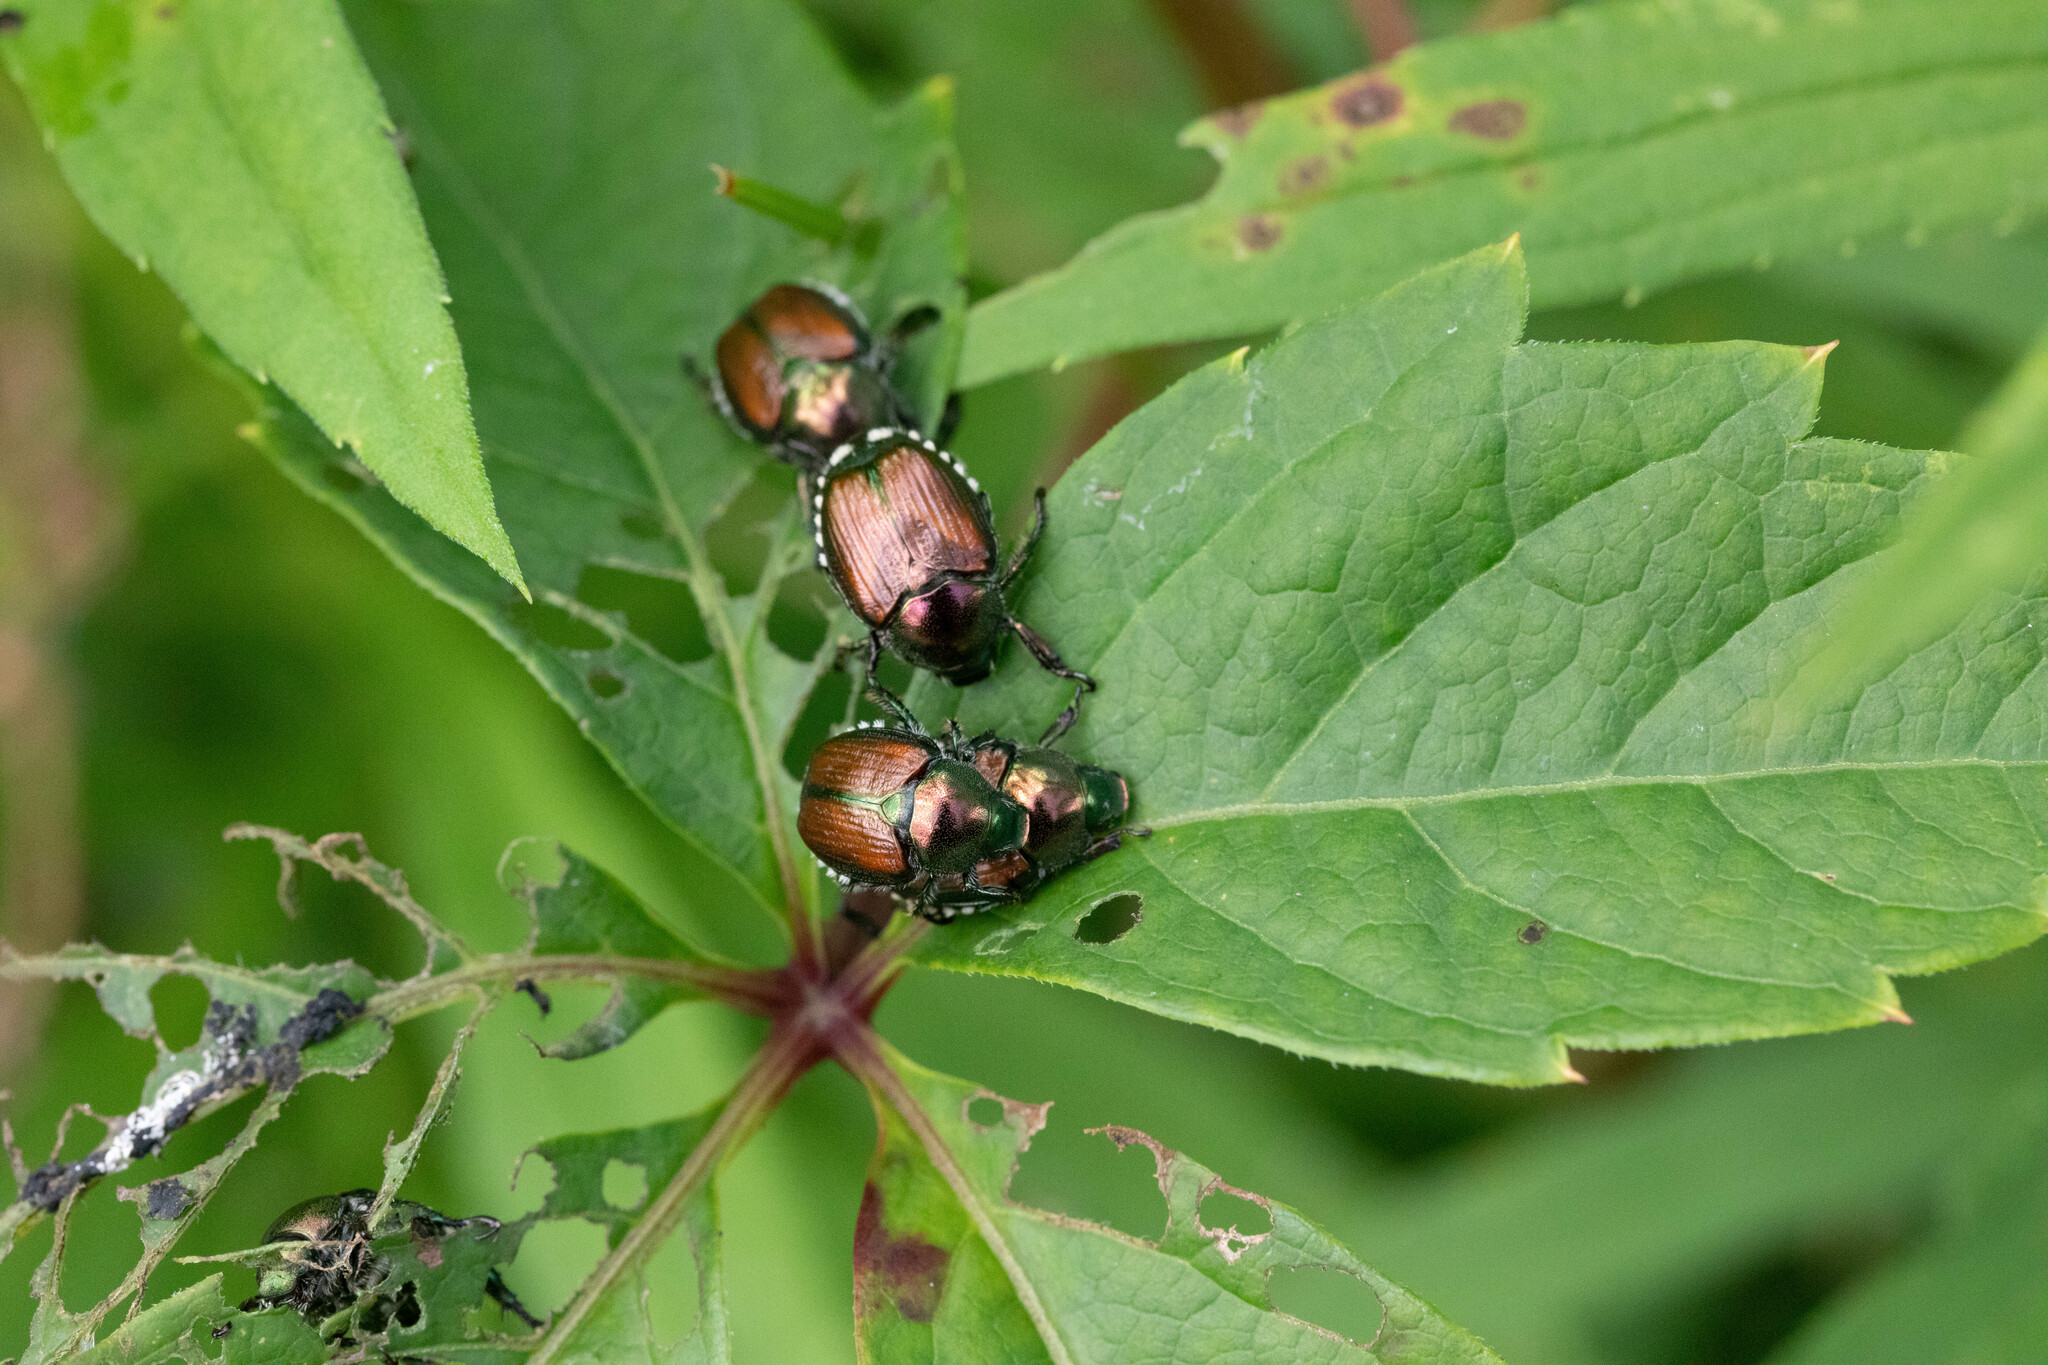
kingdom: Animalia
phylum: Arthropoda
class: Insecta
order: Coleoptera
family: Scarabaeidae
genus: Popillia
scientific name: Popillia japonica
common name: Japanese beetle
